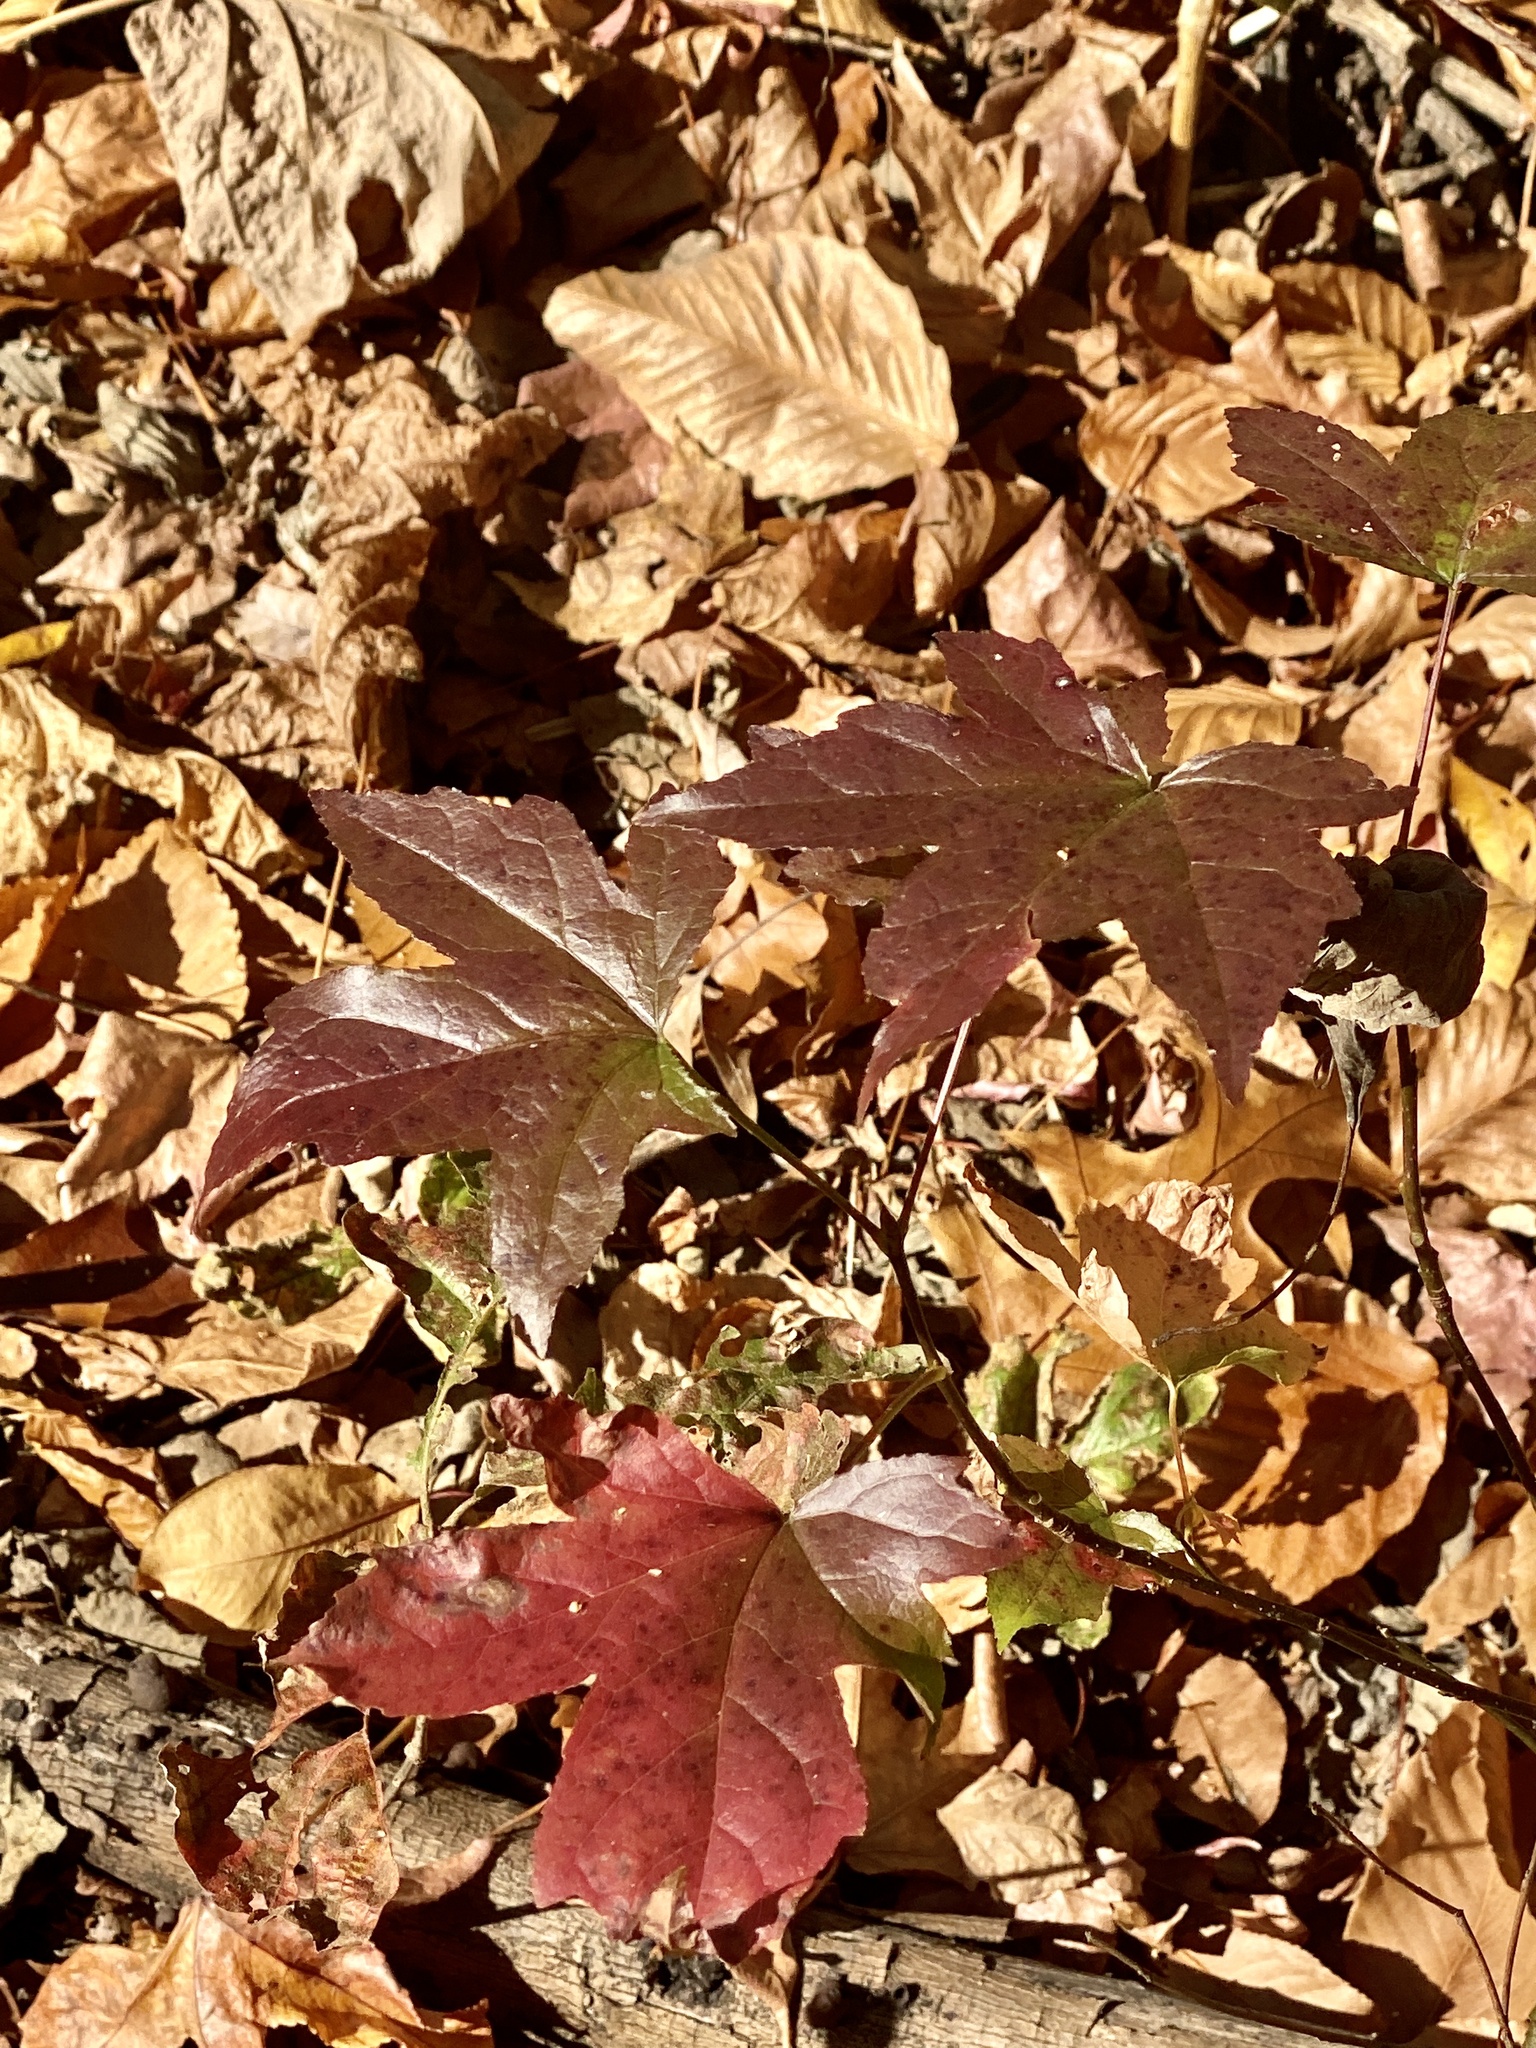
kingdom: Plantae
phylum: Tracheophyta
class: Magnoliopsida
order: Saxifragales
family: Altingiaceae
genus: Liquidambar
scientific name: Liquidambar styraciflua
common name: Sweet gum
